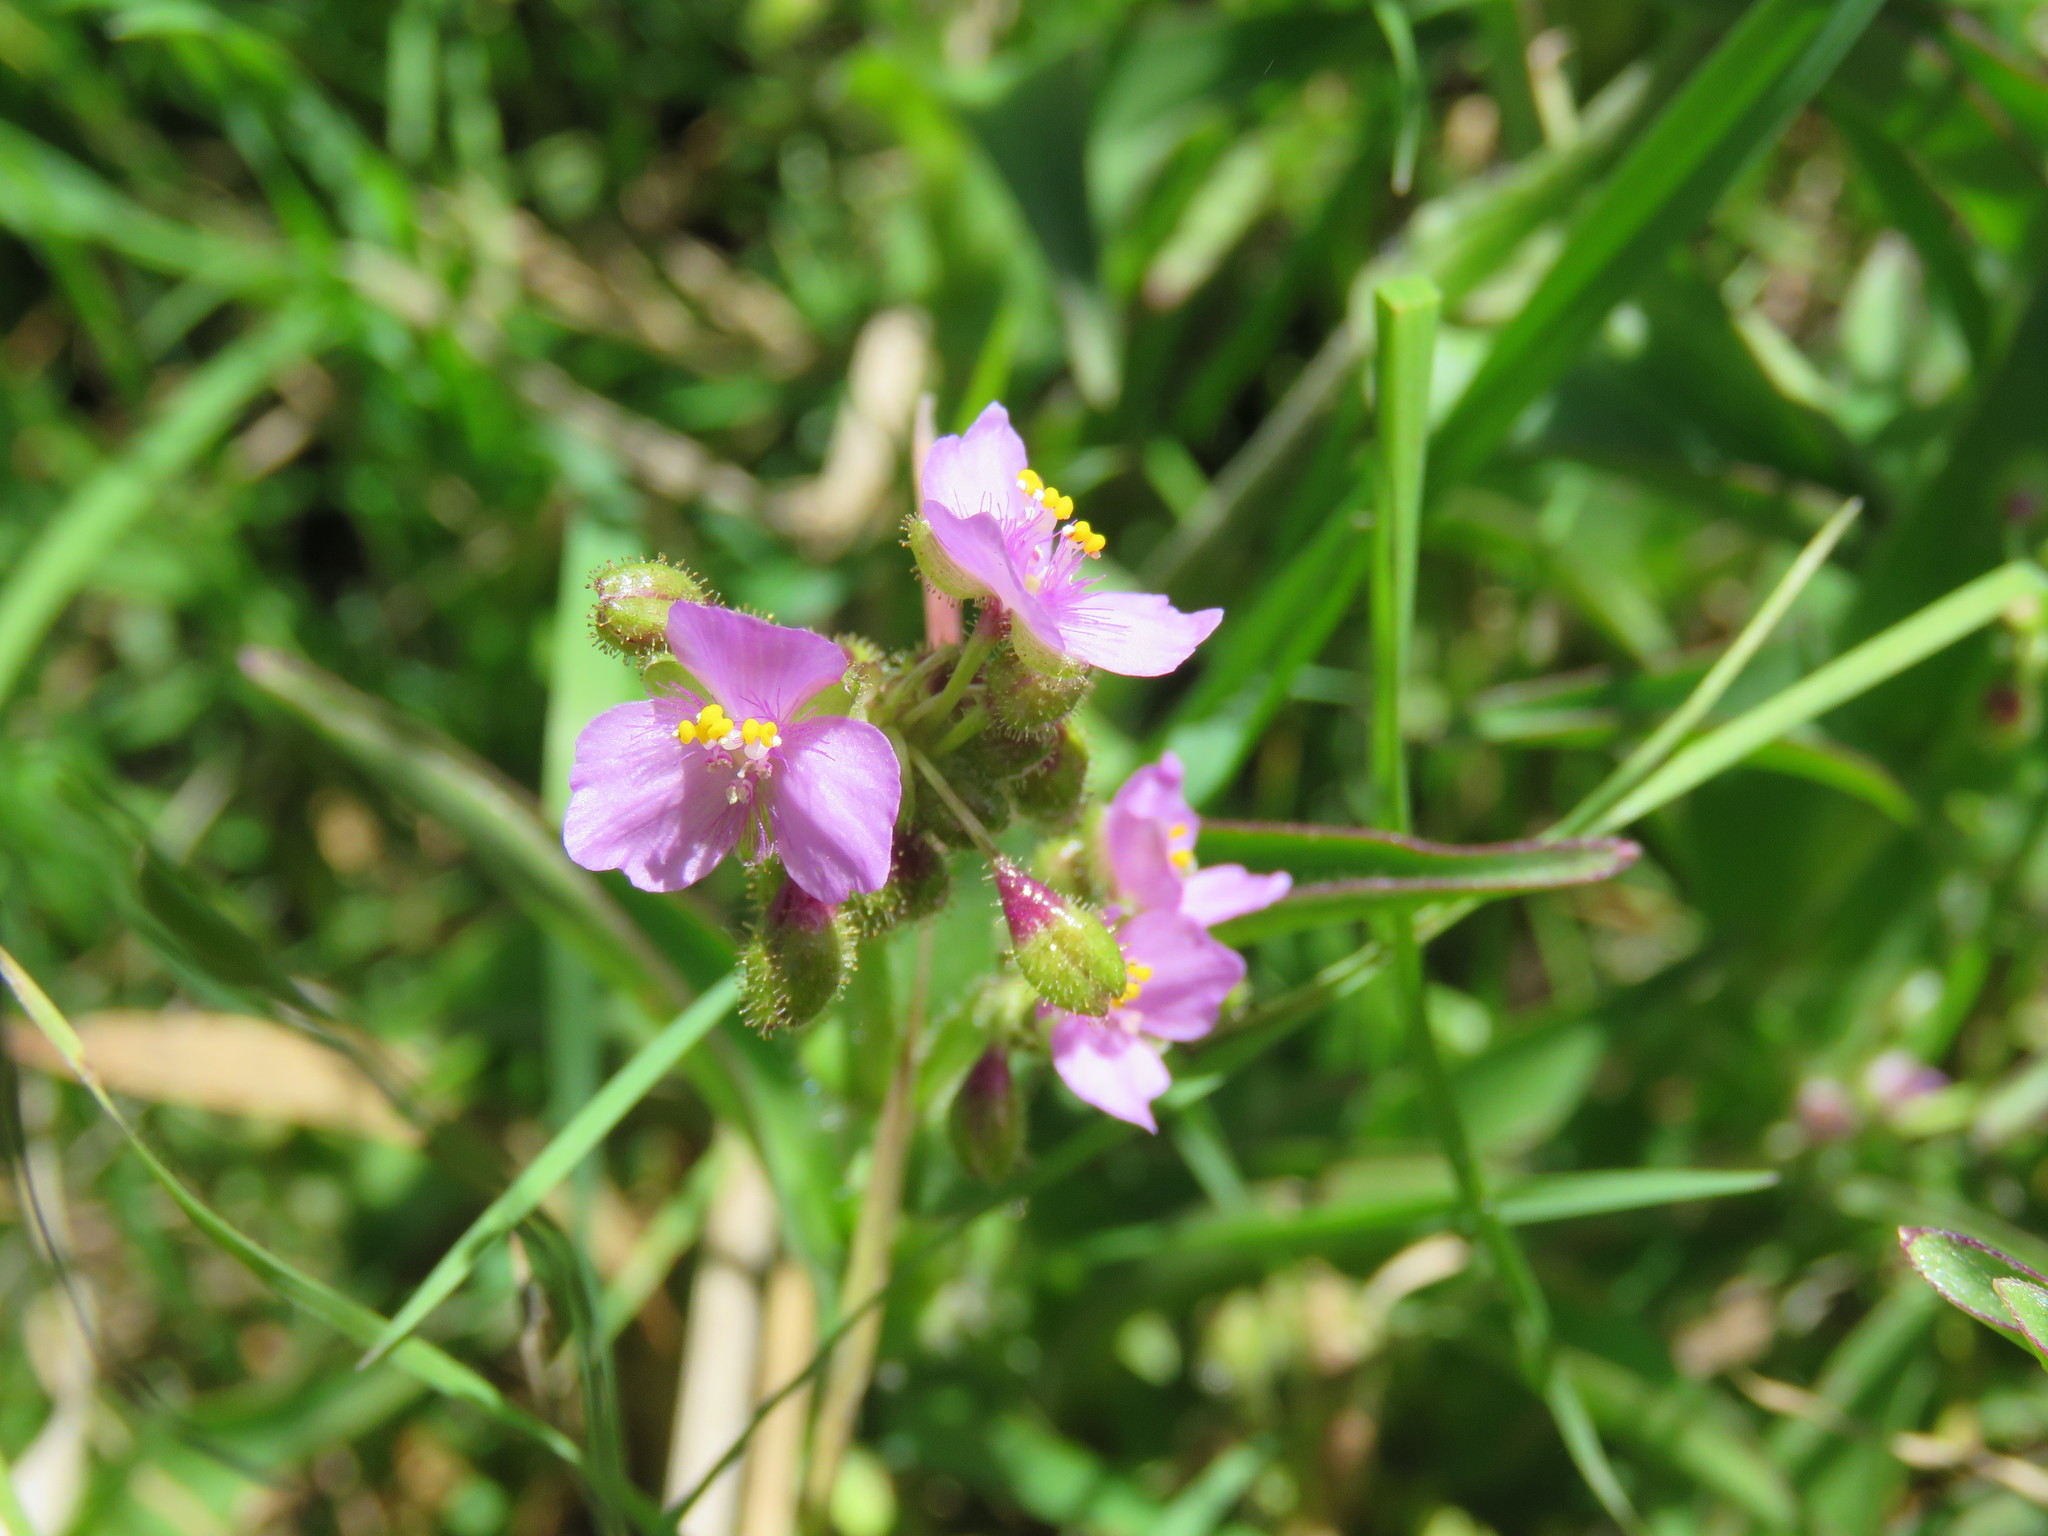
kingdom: Plantae
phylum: Tracheophyta
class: Liliopsida
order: Commelinales
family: Commelinaceae
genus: Tinantia
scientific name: Tinantia erecta
